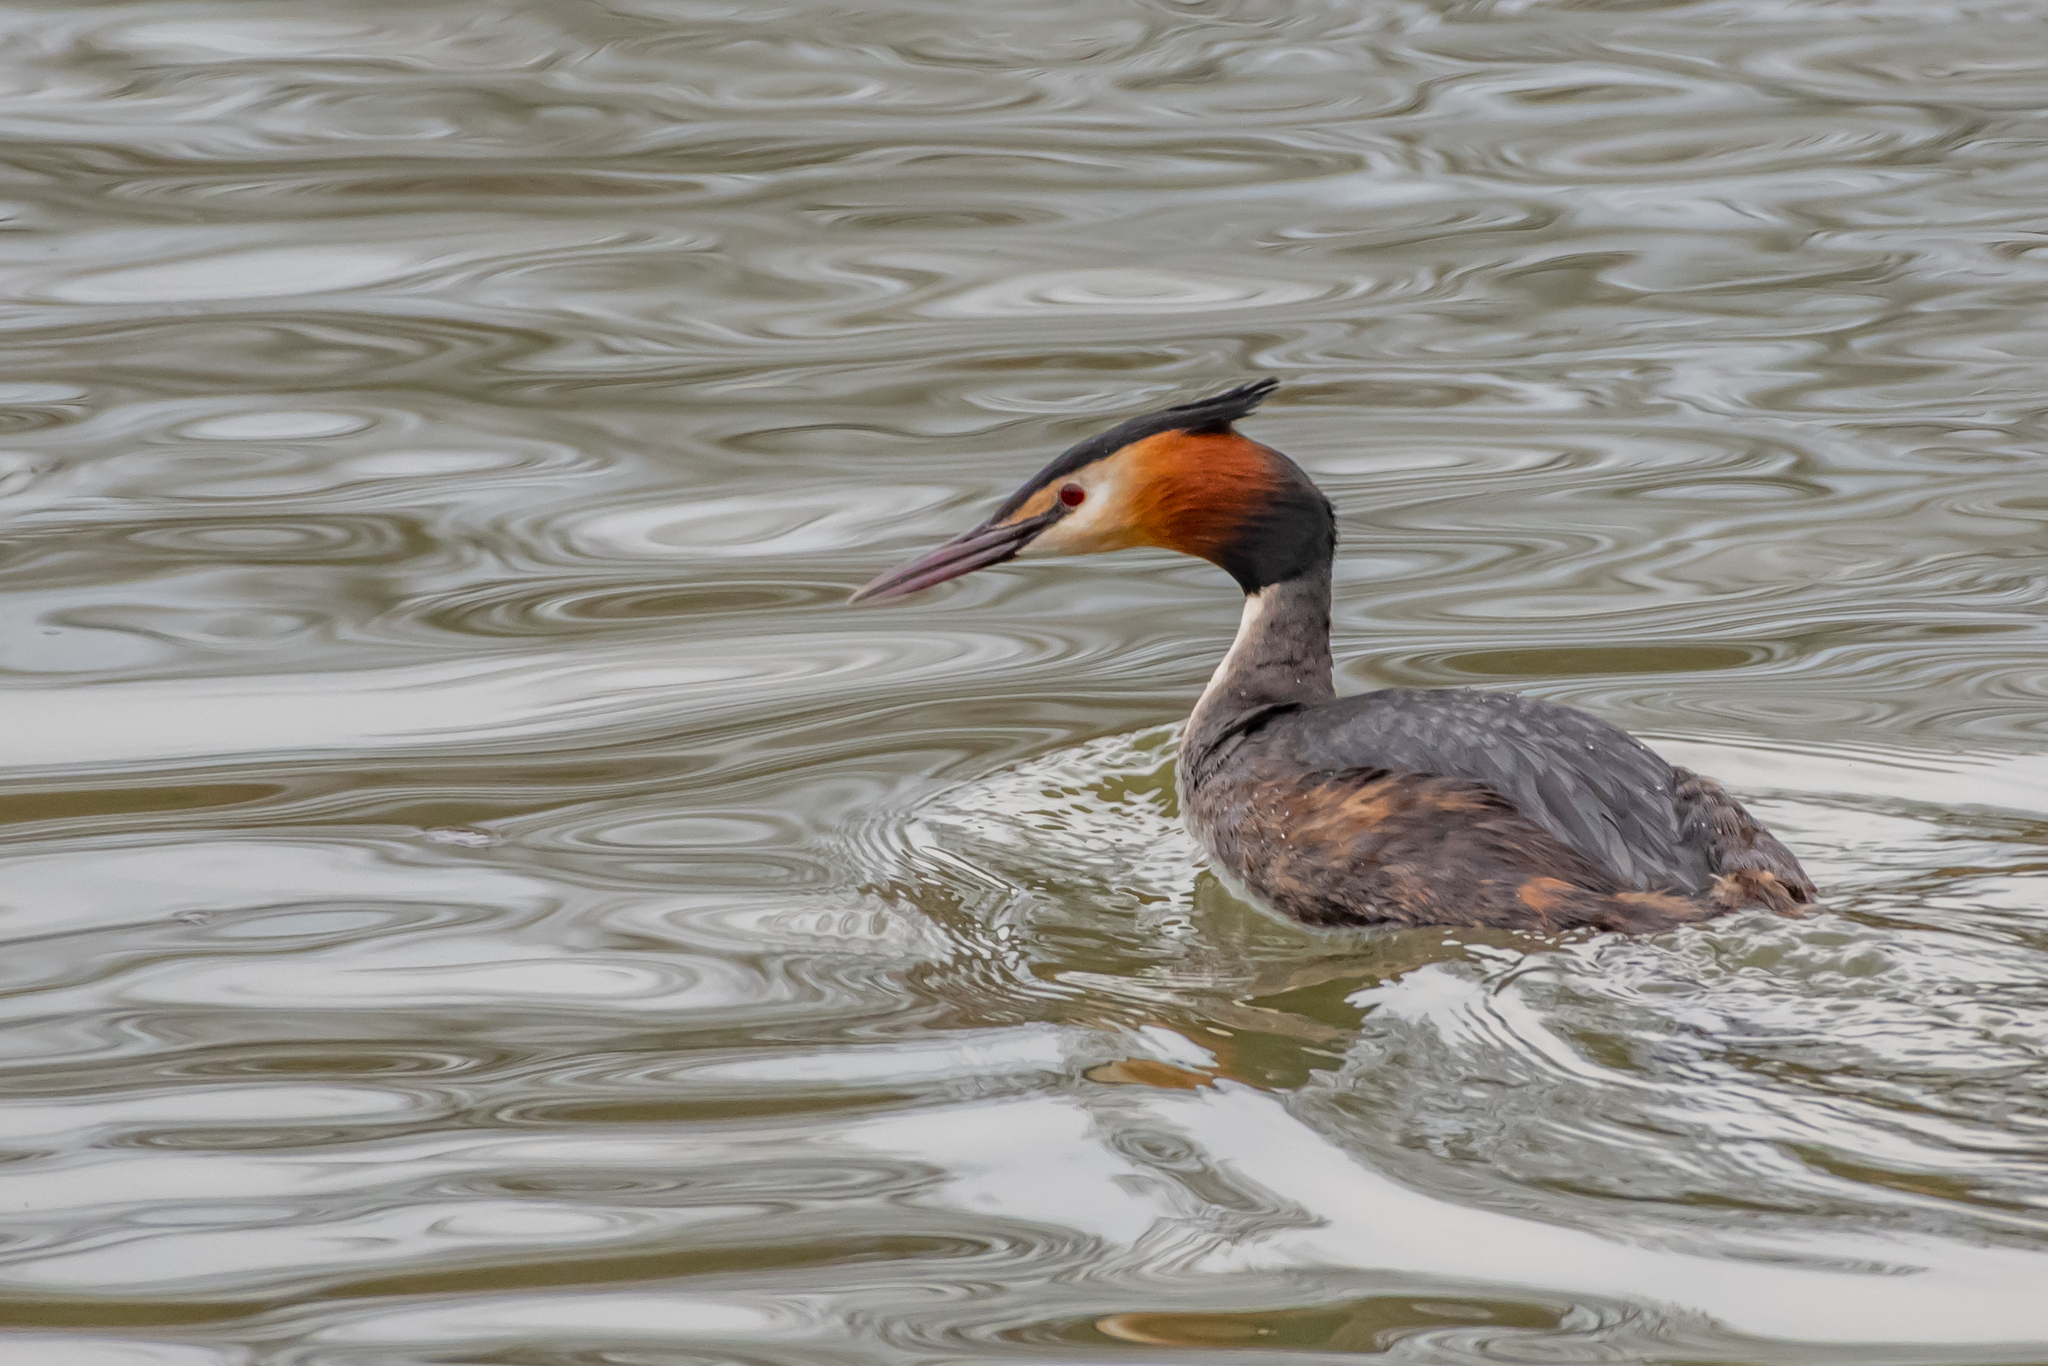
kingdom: Animalia
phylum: Chordata
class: Aves
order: Podicipediformes
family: Podicipedidae
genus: Podiceps
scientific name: Podiceps cristatus
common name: Great crested grebe
